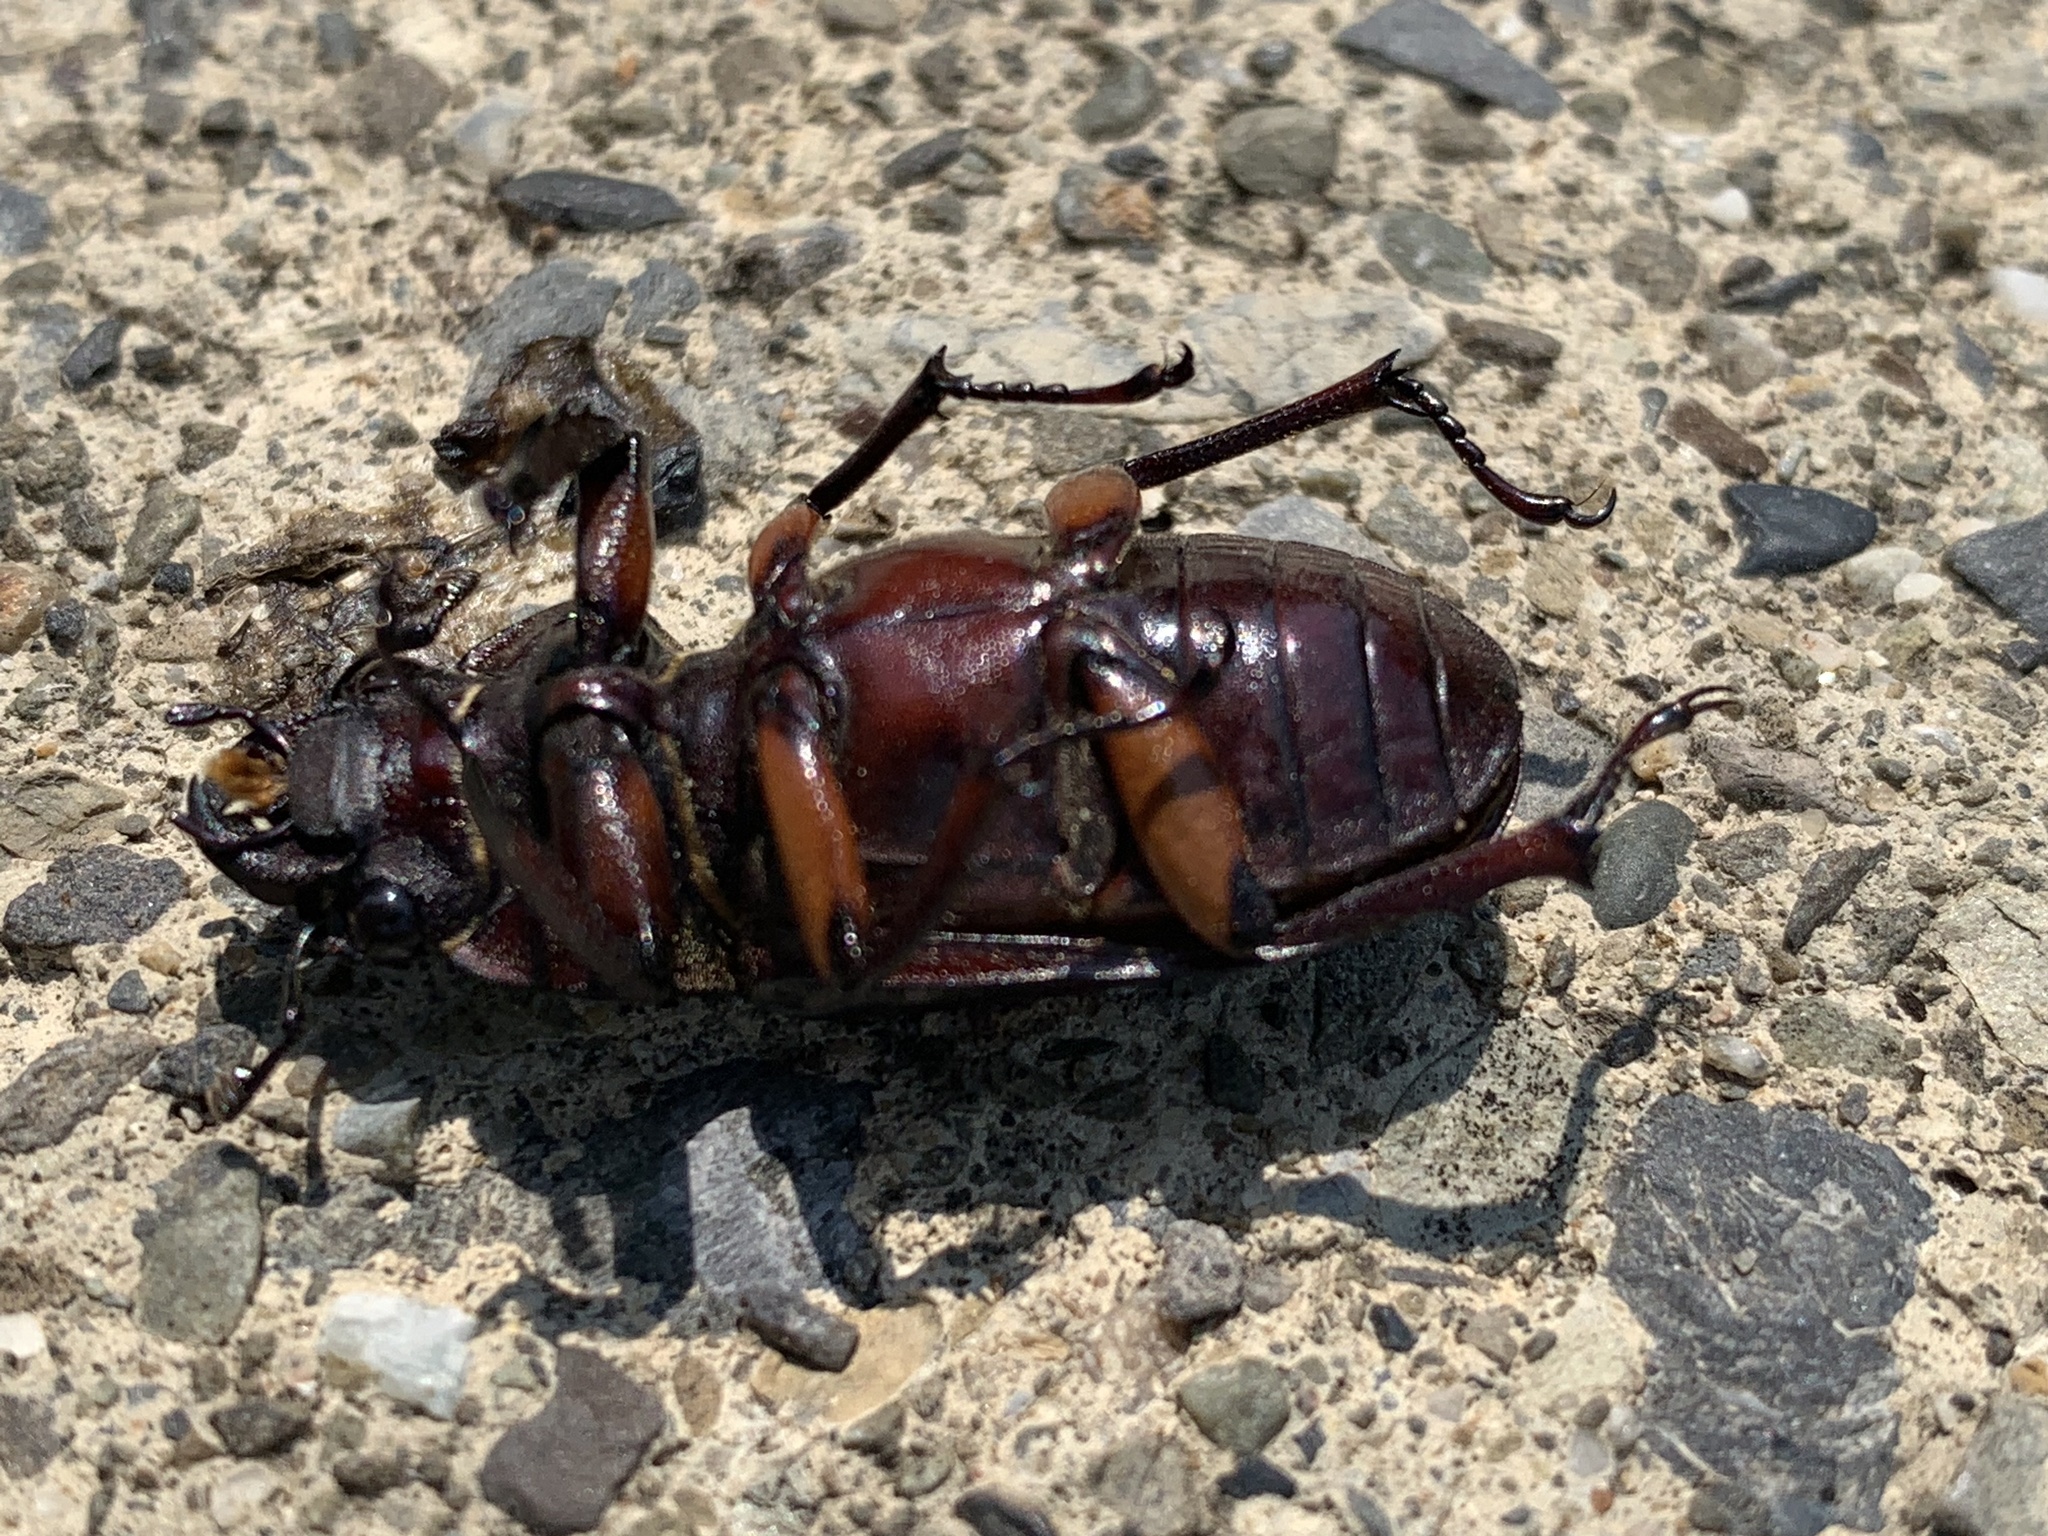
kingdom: Animalia
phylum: Arthropoda
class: Insecta
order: Coleoptera
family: Lucanidae
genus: Lucanus
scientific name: Lucanus capreolus
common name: Stag beetle
